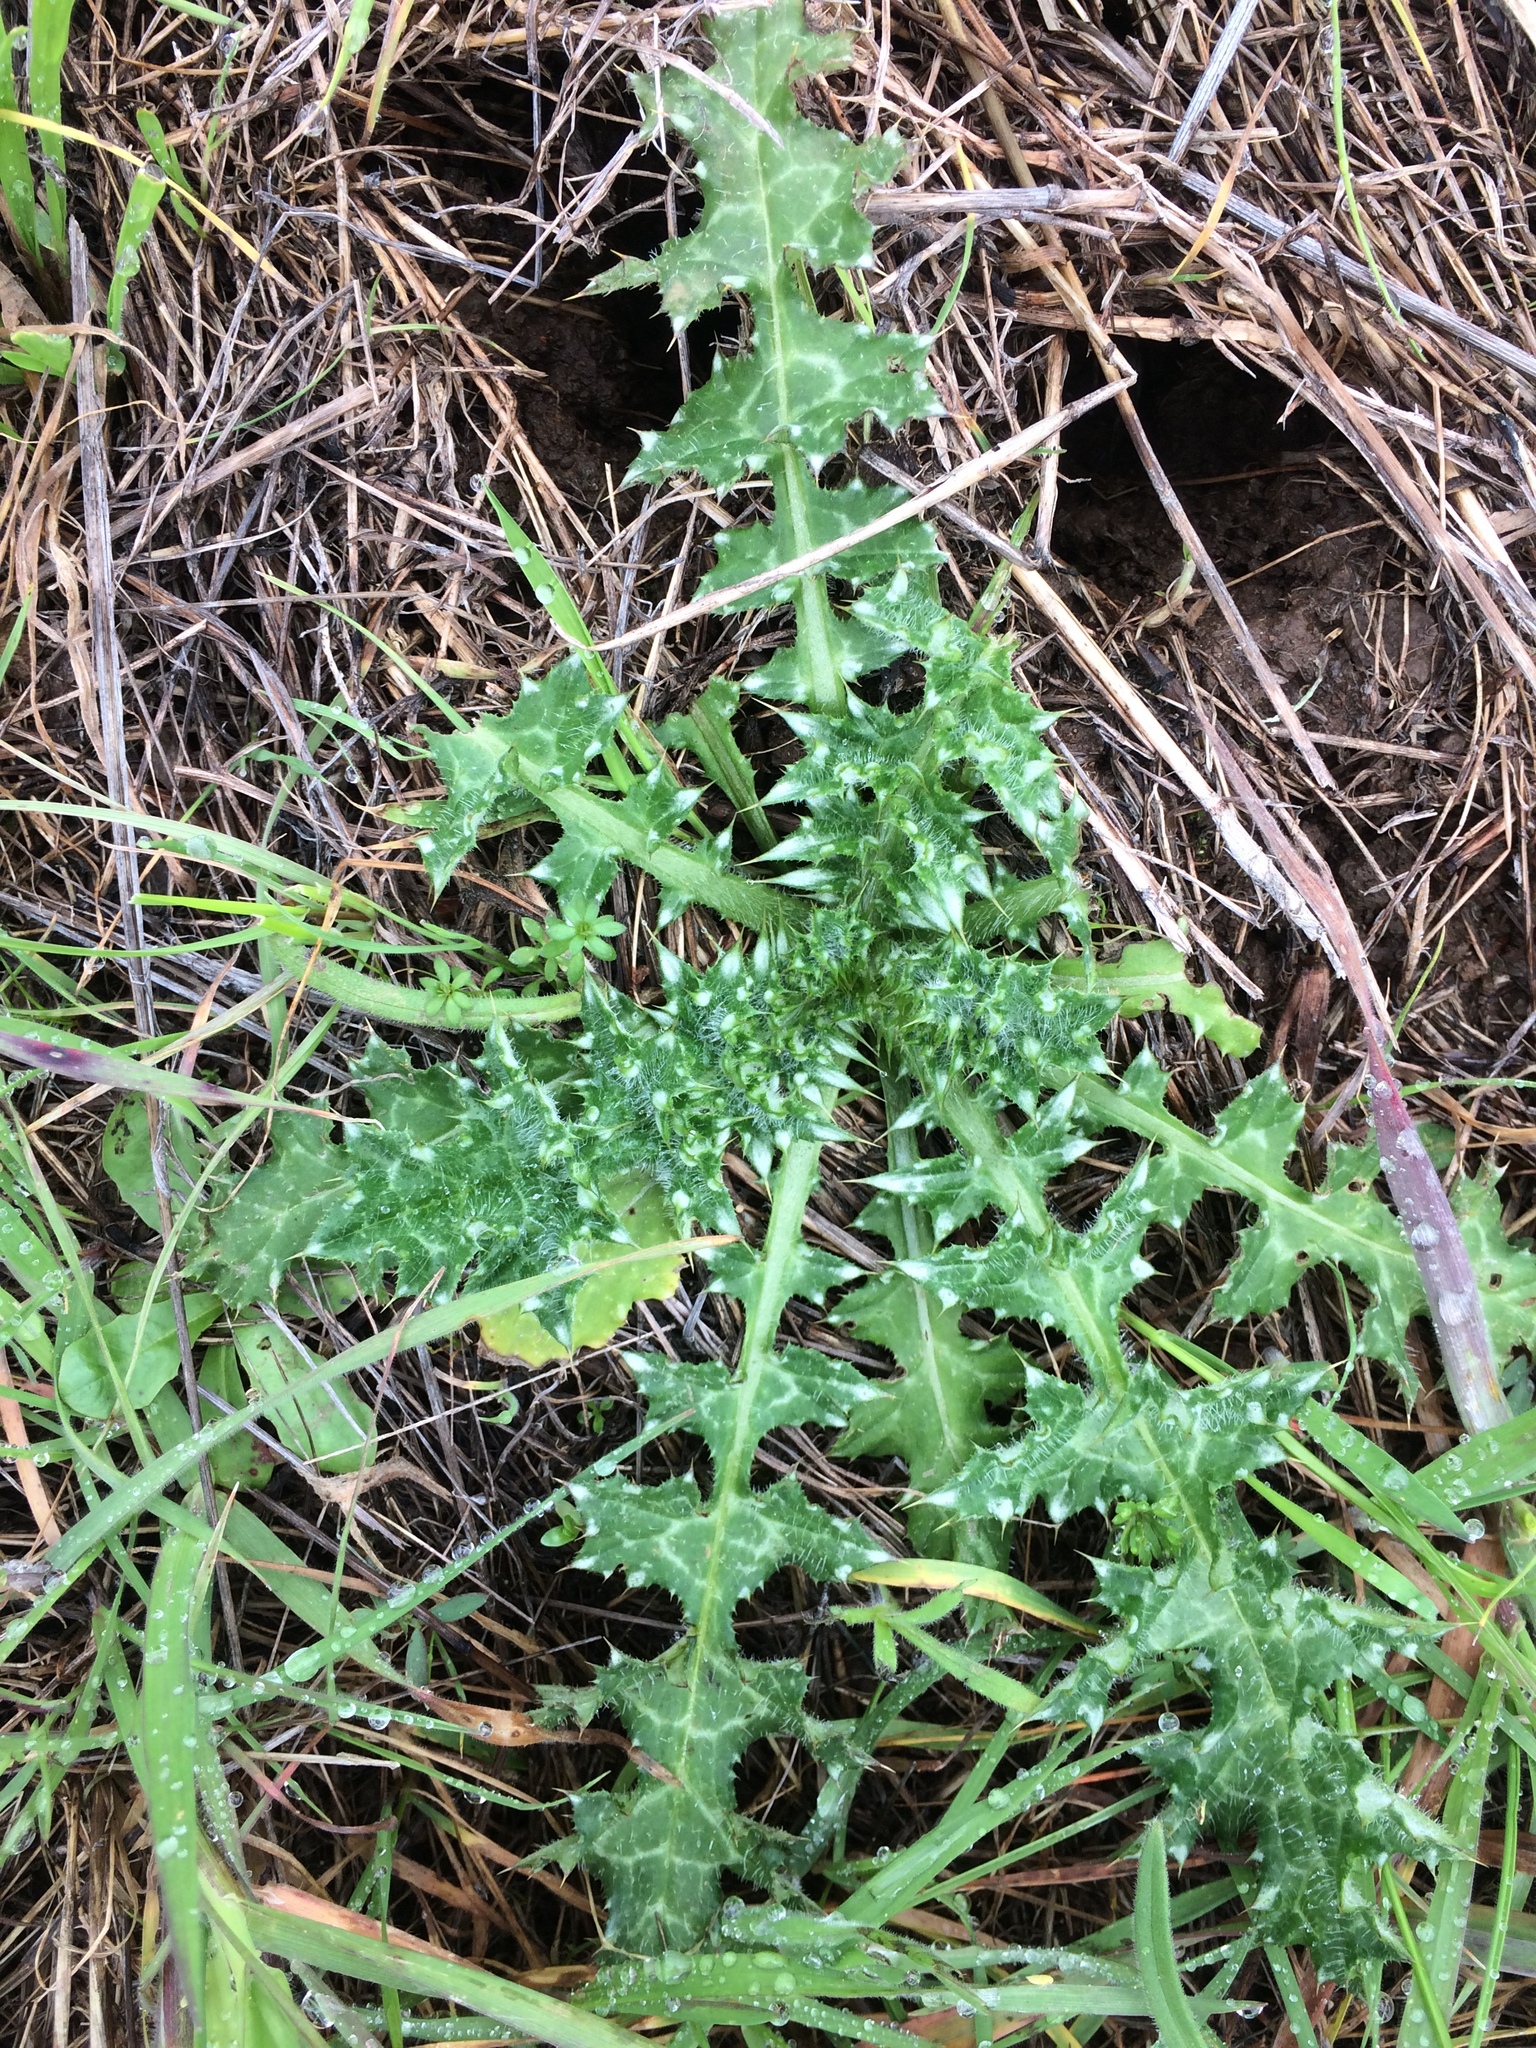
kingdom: Plantae
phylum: Tracheophyta
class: Magnoliopsida
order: Asterales
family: Asteraceae
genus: Carduus
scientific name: Carduus pycnocephalus
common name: Plymouth thistle
